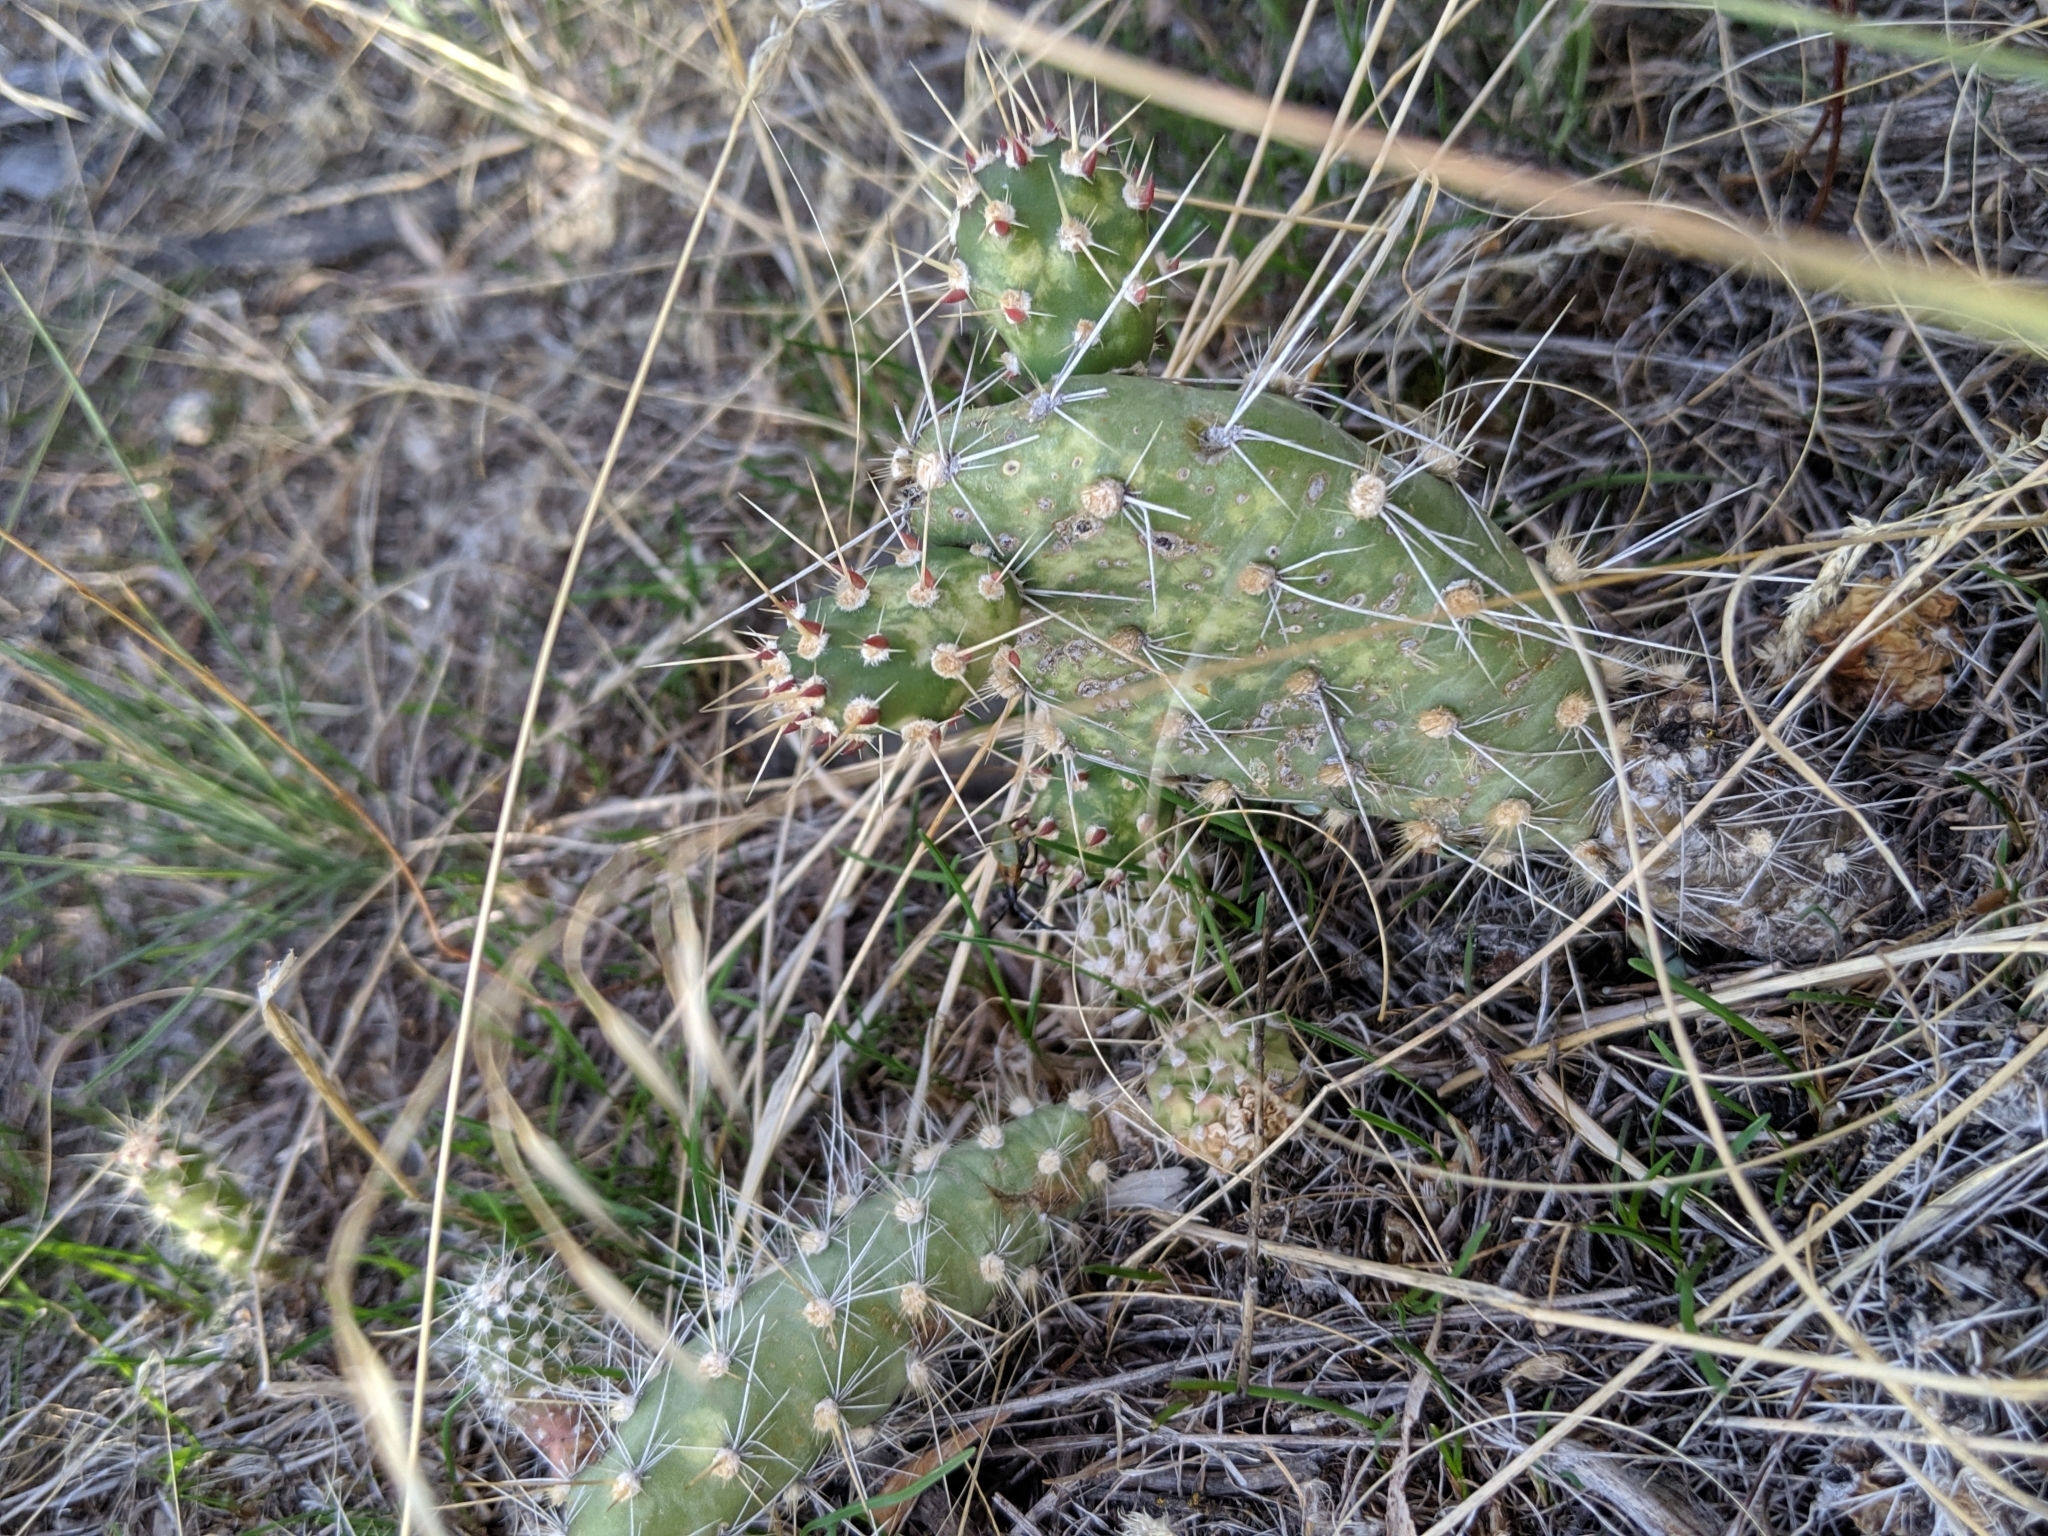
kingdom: Plantae
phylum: Tracheophyta
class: Magnoliopsida
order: Caryophyllales
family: Cactaceae
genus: Opuntia
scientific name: Opuntia columbiana
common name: Columbia prickly-pear
